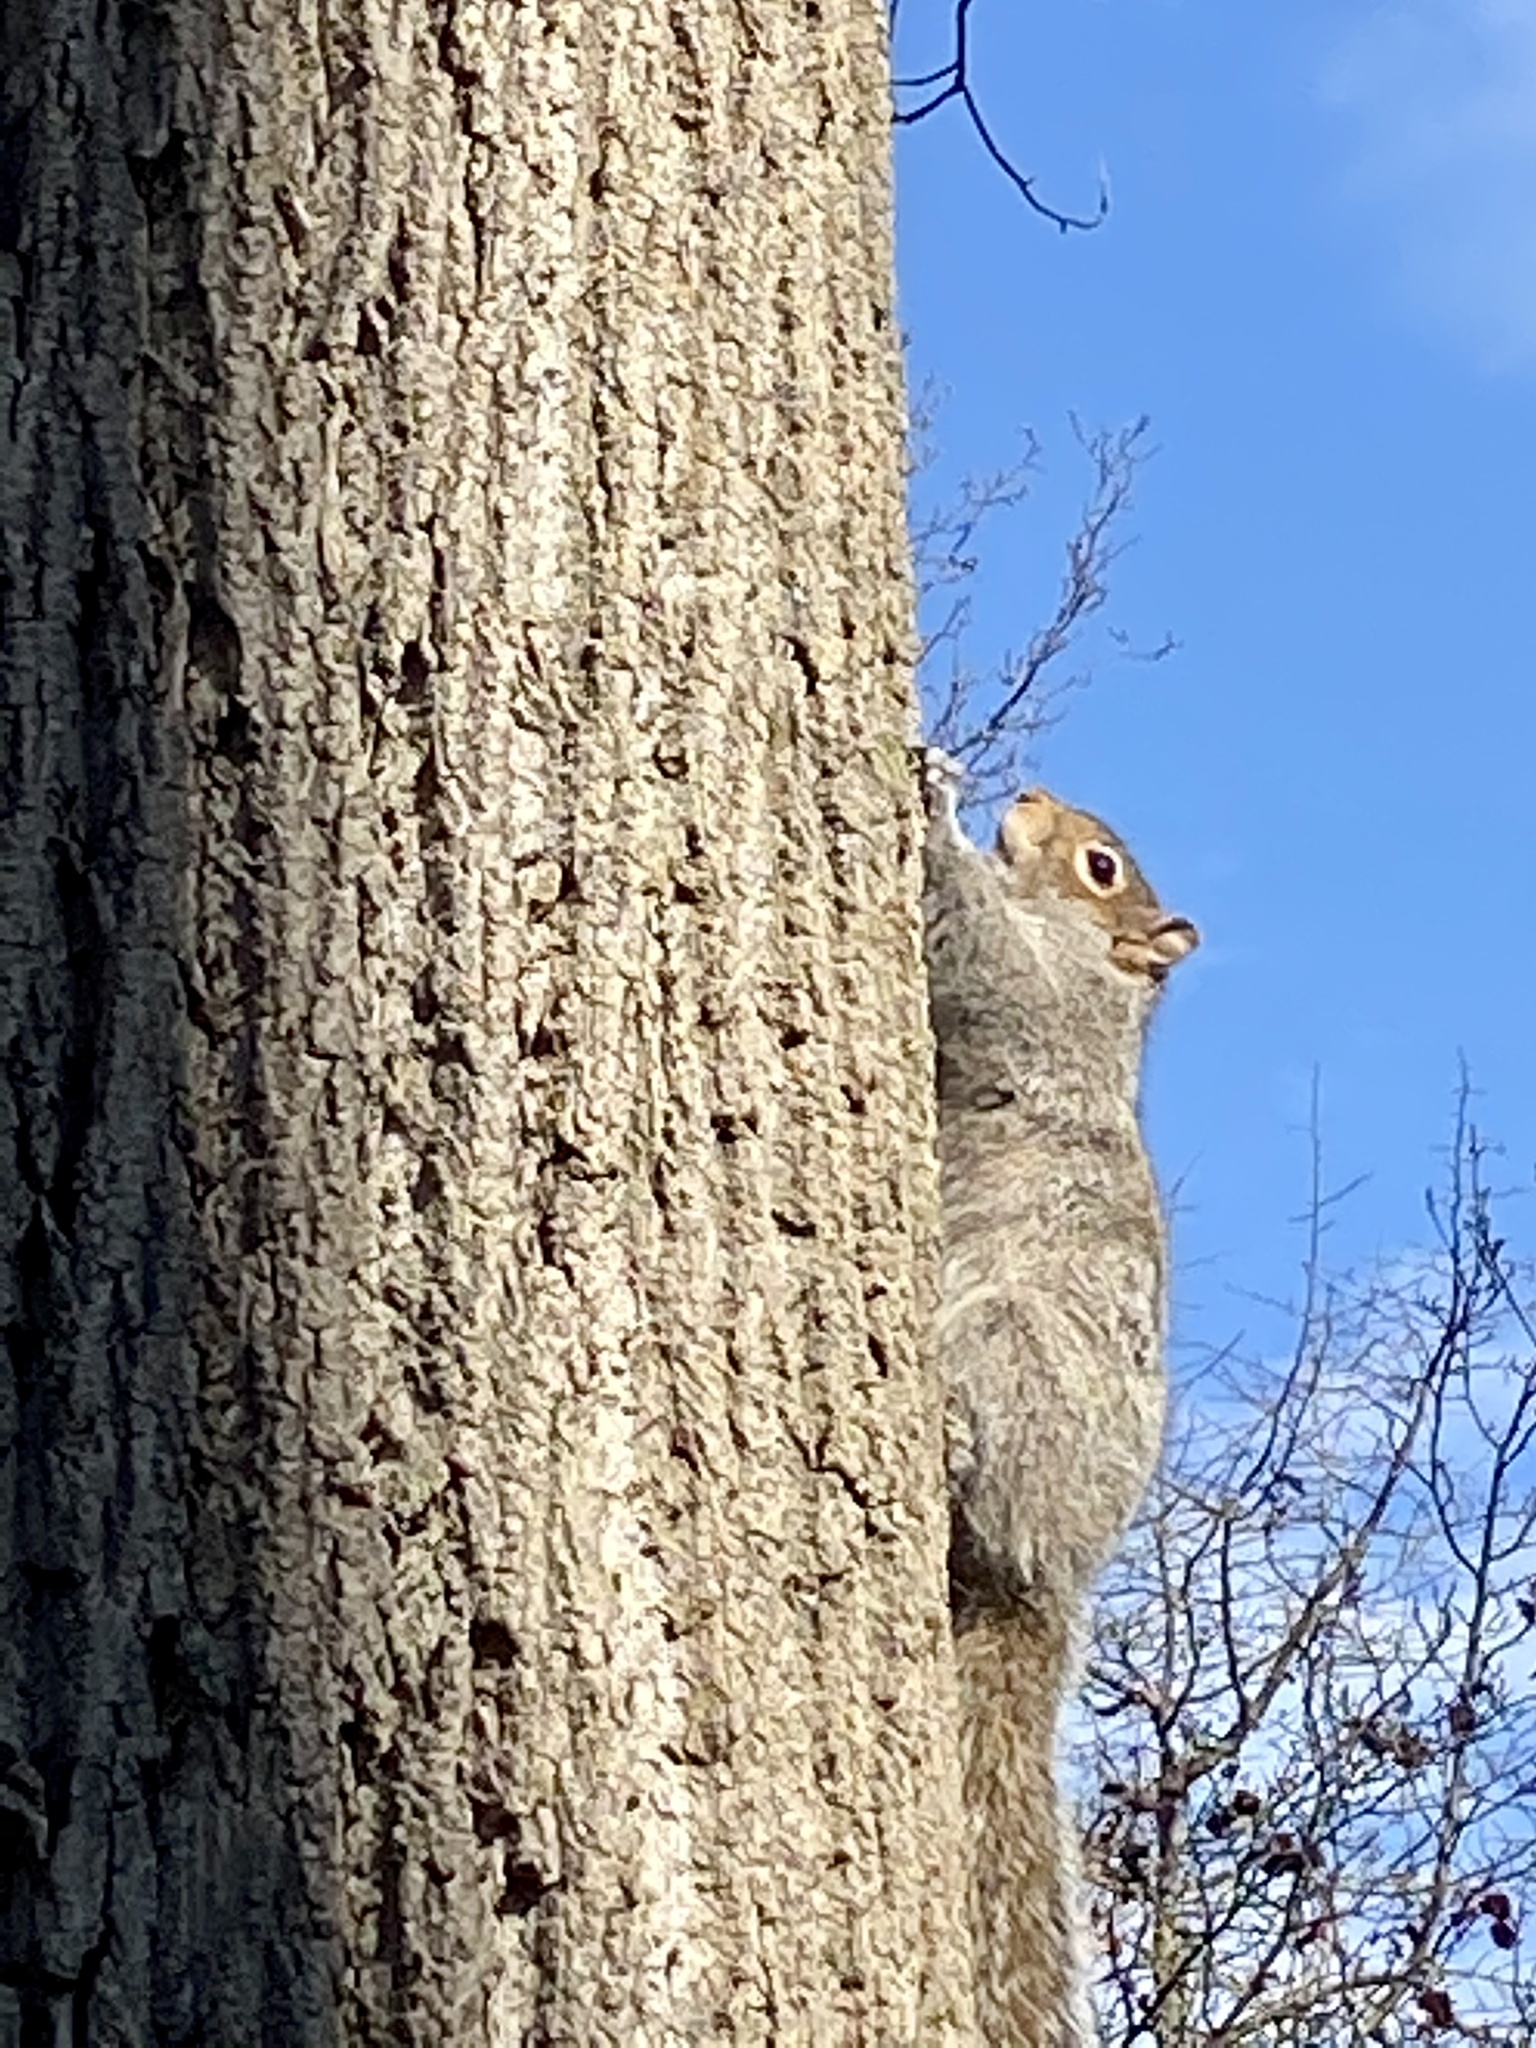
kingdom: Animalia
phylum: Chordata
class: Mammalia
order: Rodentia
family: Sciuridae
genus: Sciurus
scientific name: Sciurus carolinensis
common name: Eastern gray squirrel
